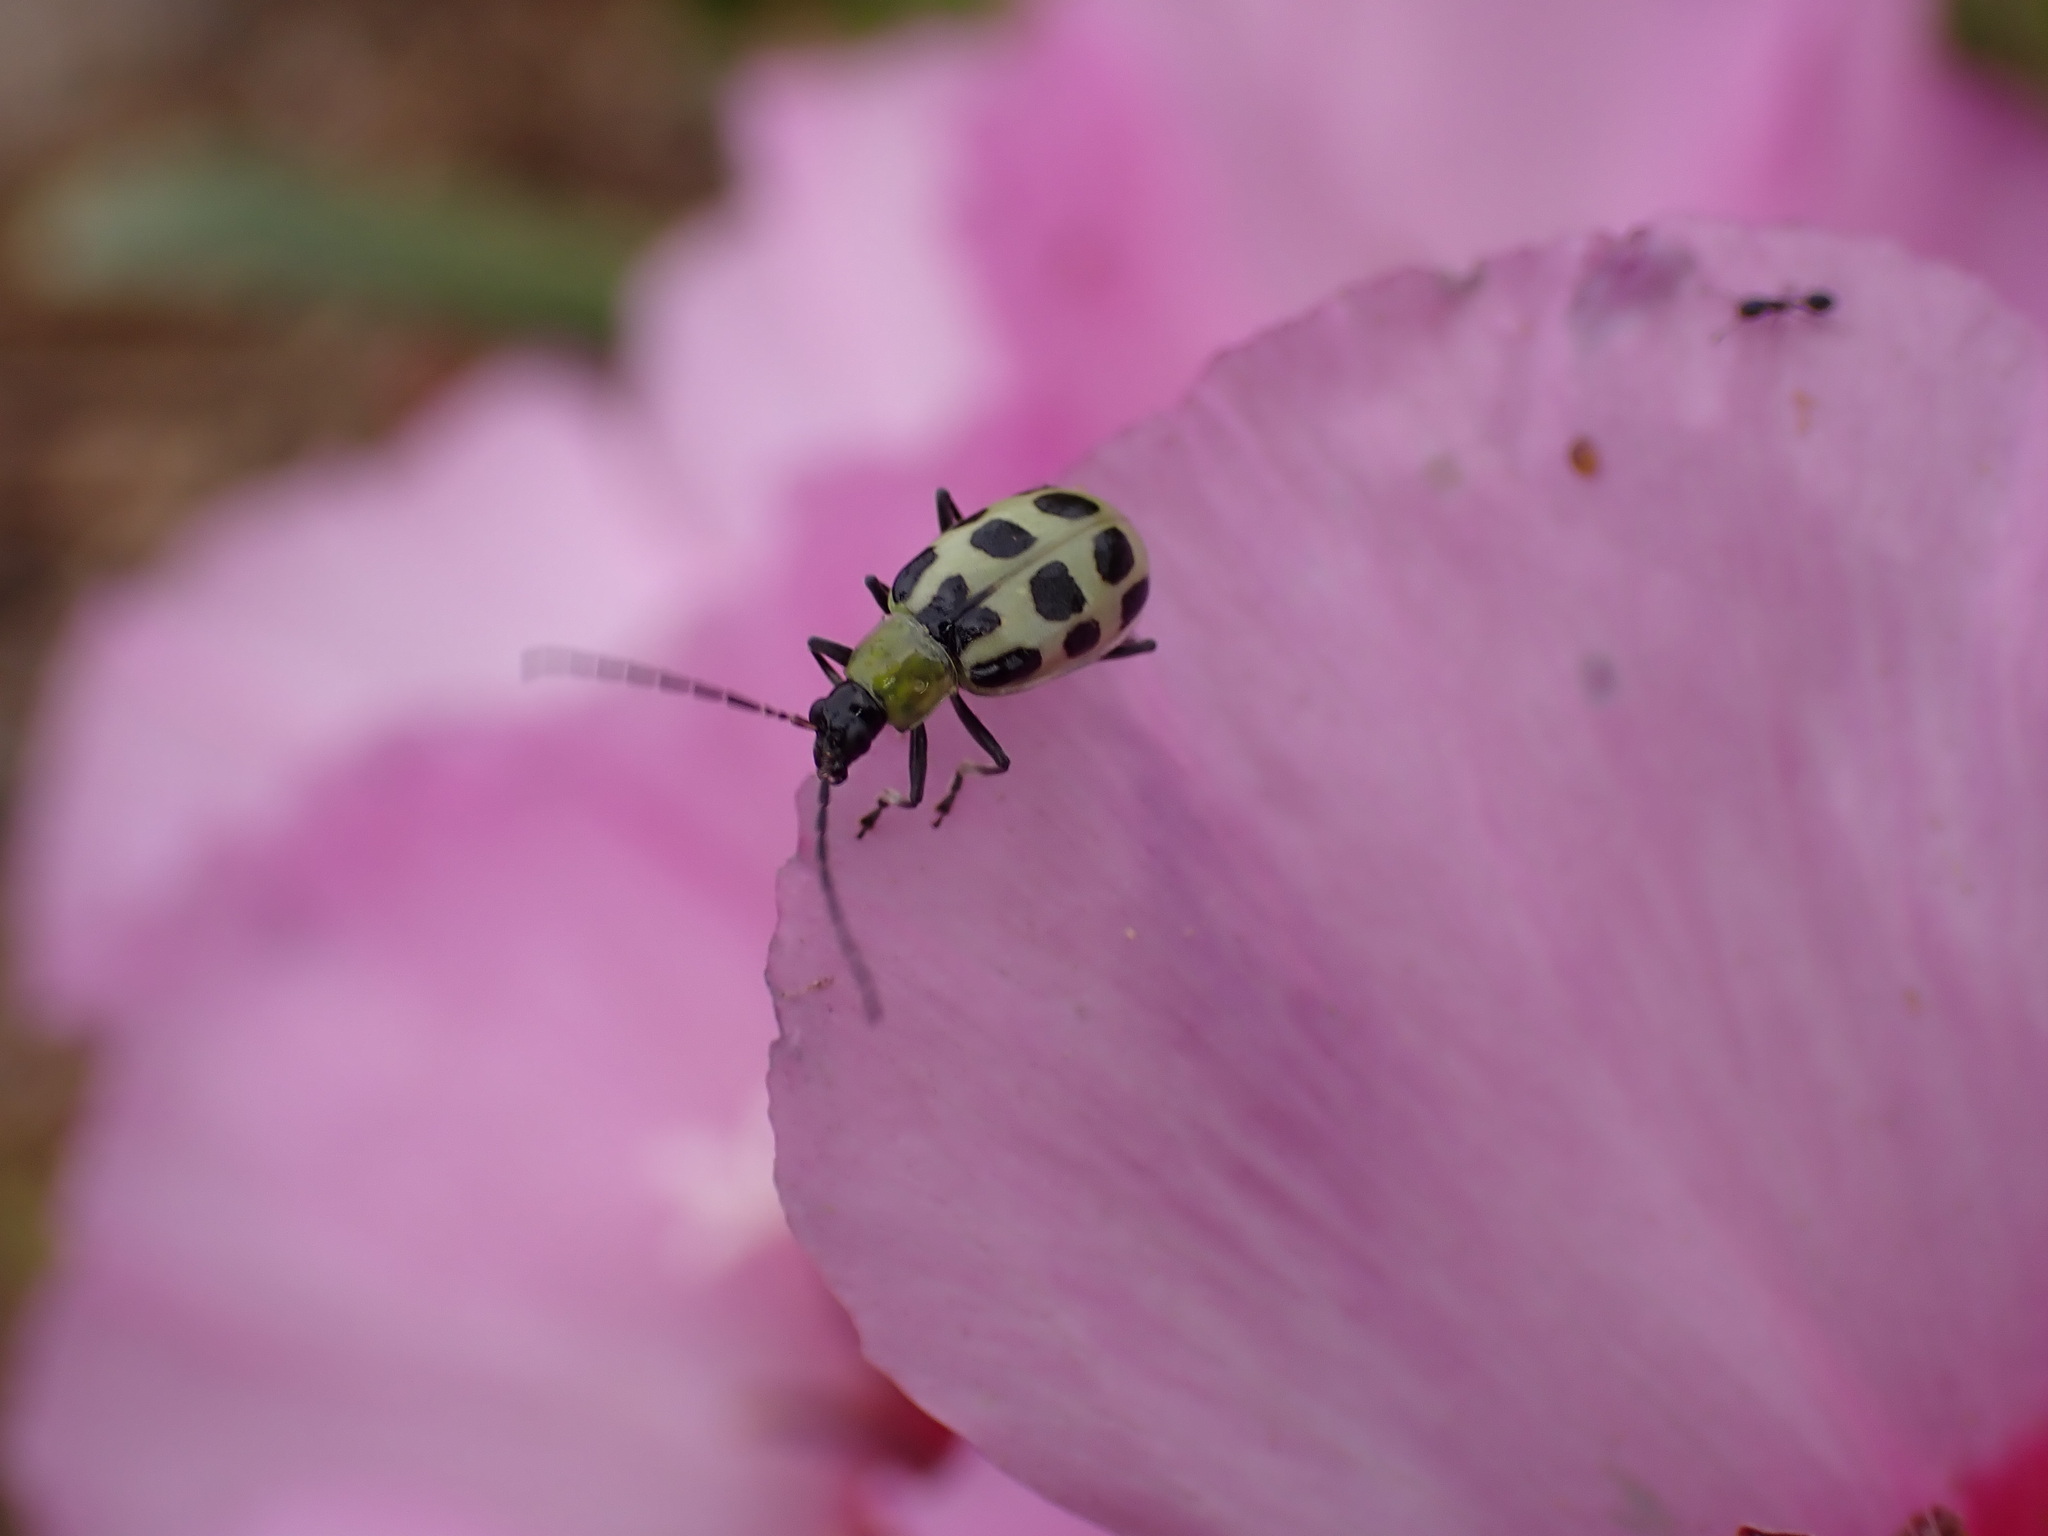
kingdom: Animalia
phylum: Arthropoda
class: Insecta
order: Coleoptera
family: Chrysomelidae
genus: Diabrotica
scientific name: Diabrotica undecimpunctata
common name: Spotted cucumber beetle
